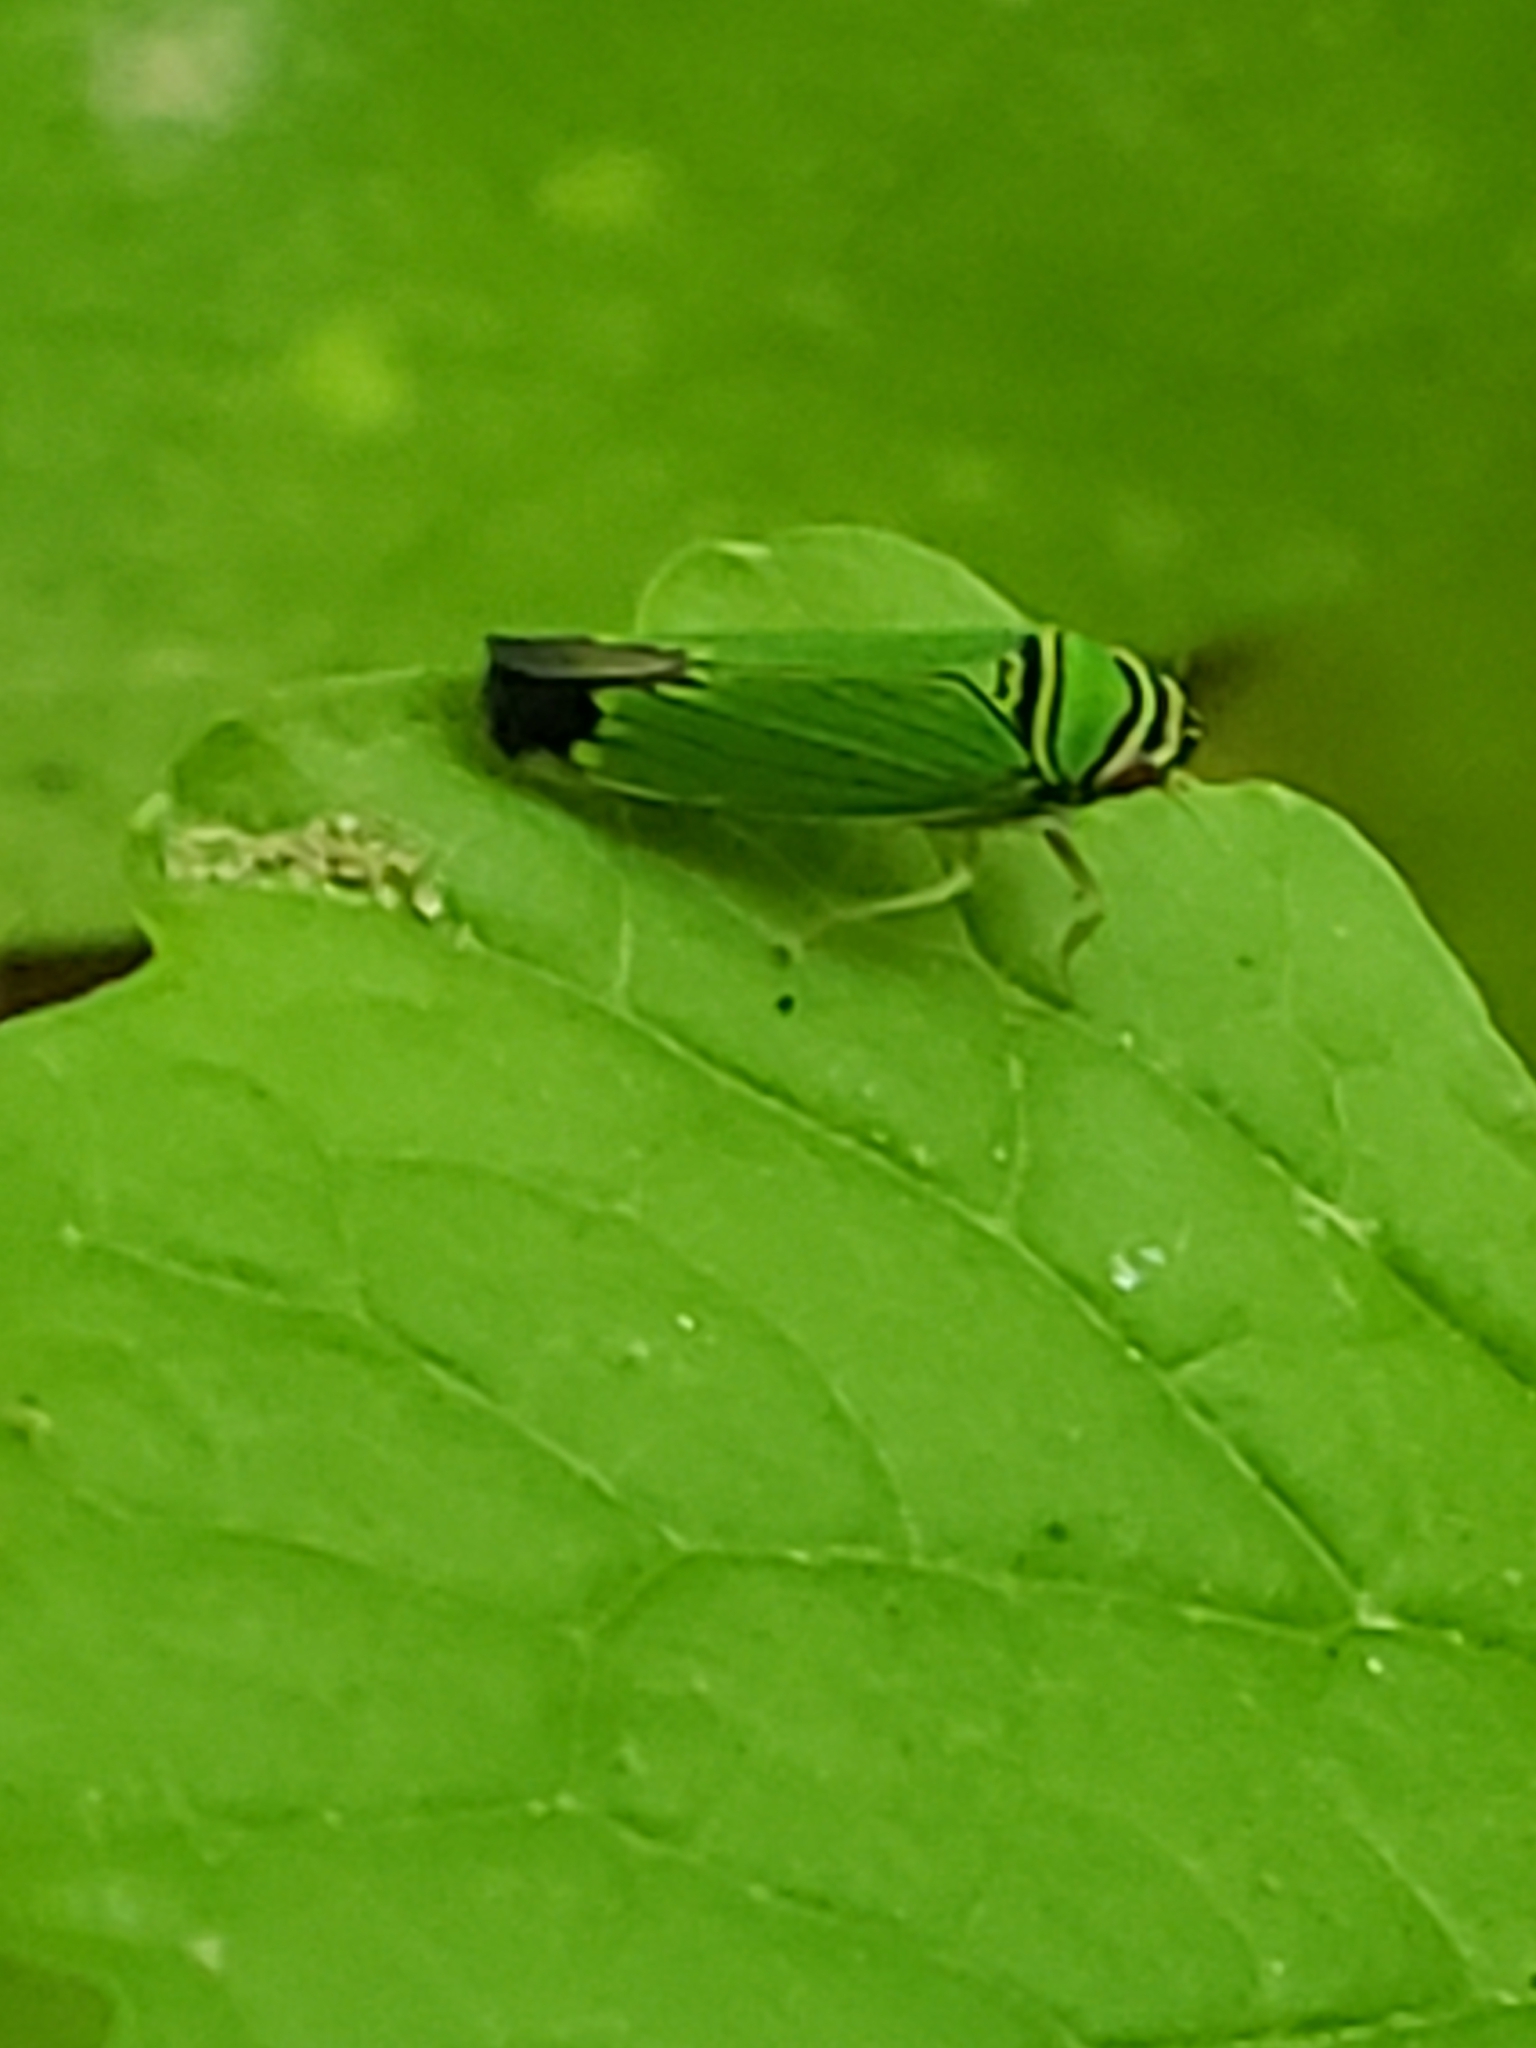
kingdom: Animalia
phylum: Arthropoda
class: Insecta
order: Hemiptera
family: Cicadellidae
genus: Tylozygus
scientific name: Tylozygus geometricus
